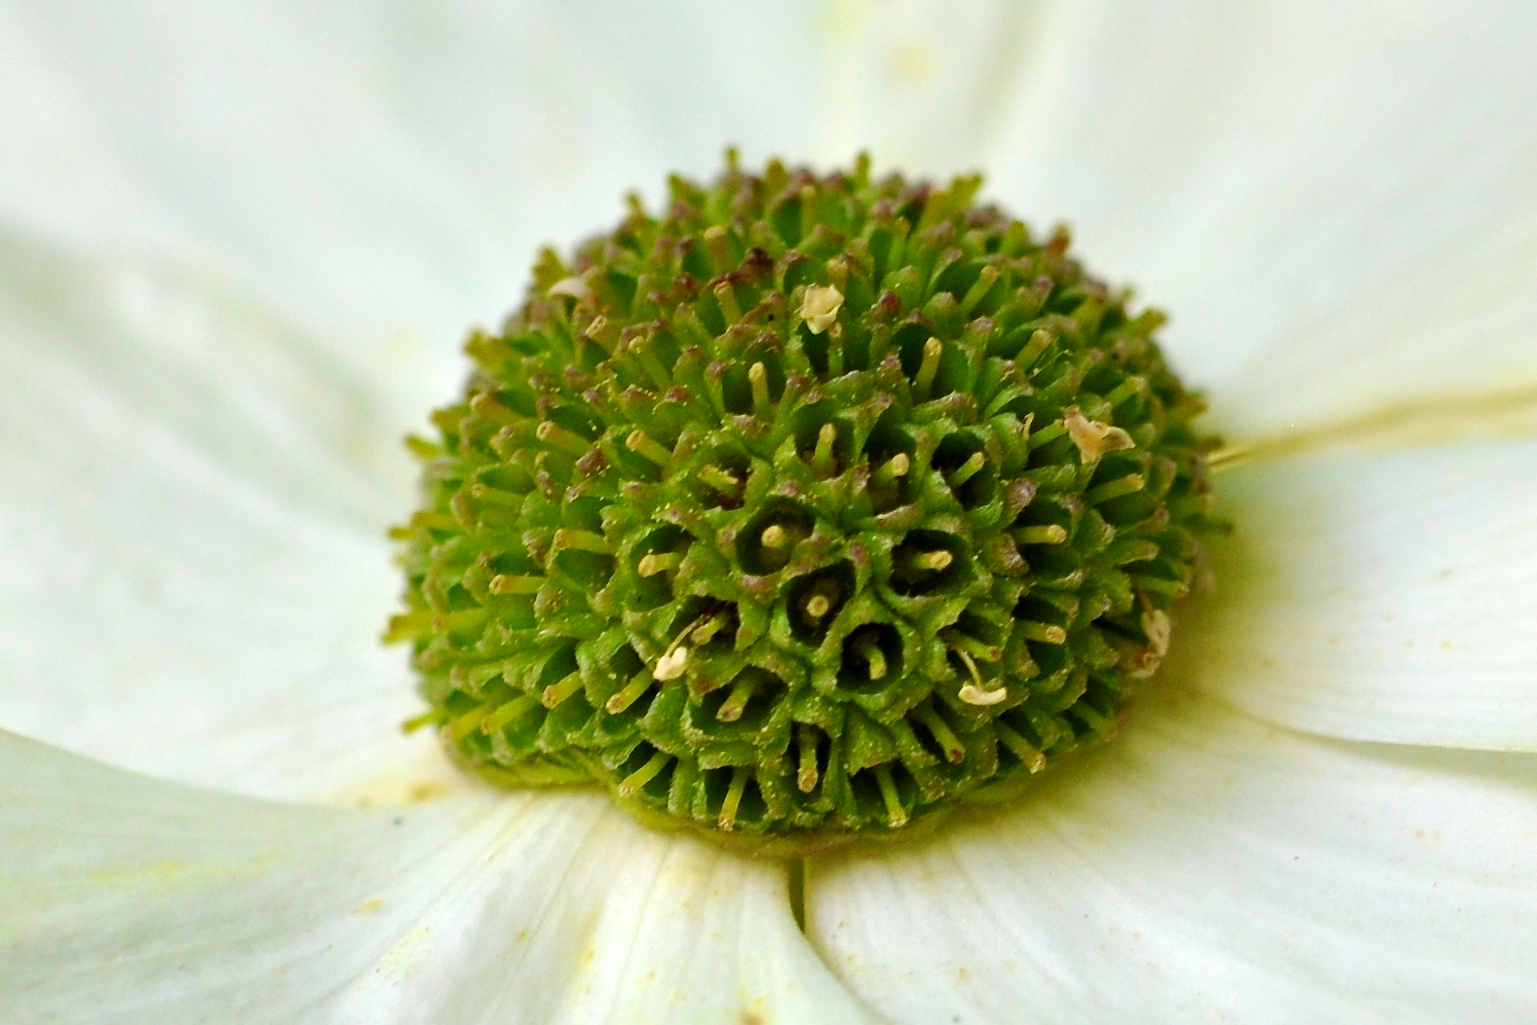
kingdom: Plantae
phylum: Tracheophyta
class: Magnoliopsida
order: Cornales
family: Cornaceae
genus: Cornus
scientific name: Cornus nuttallii
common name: Pacific dogwood
